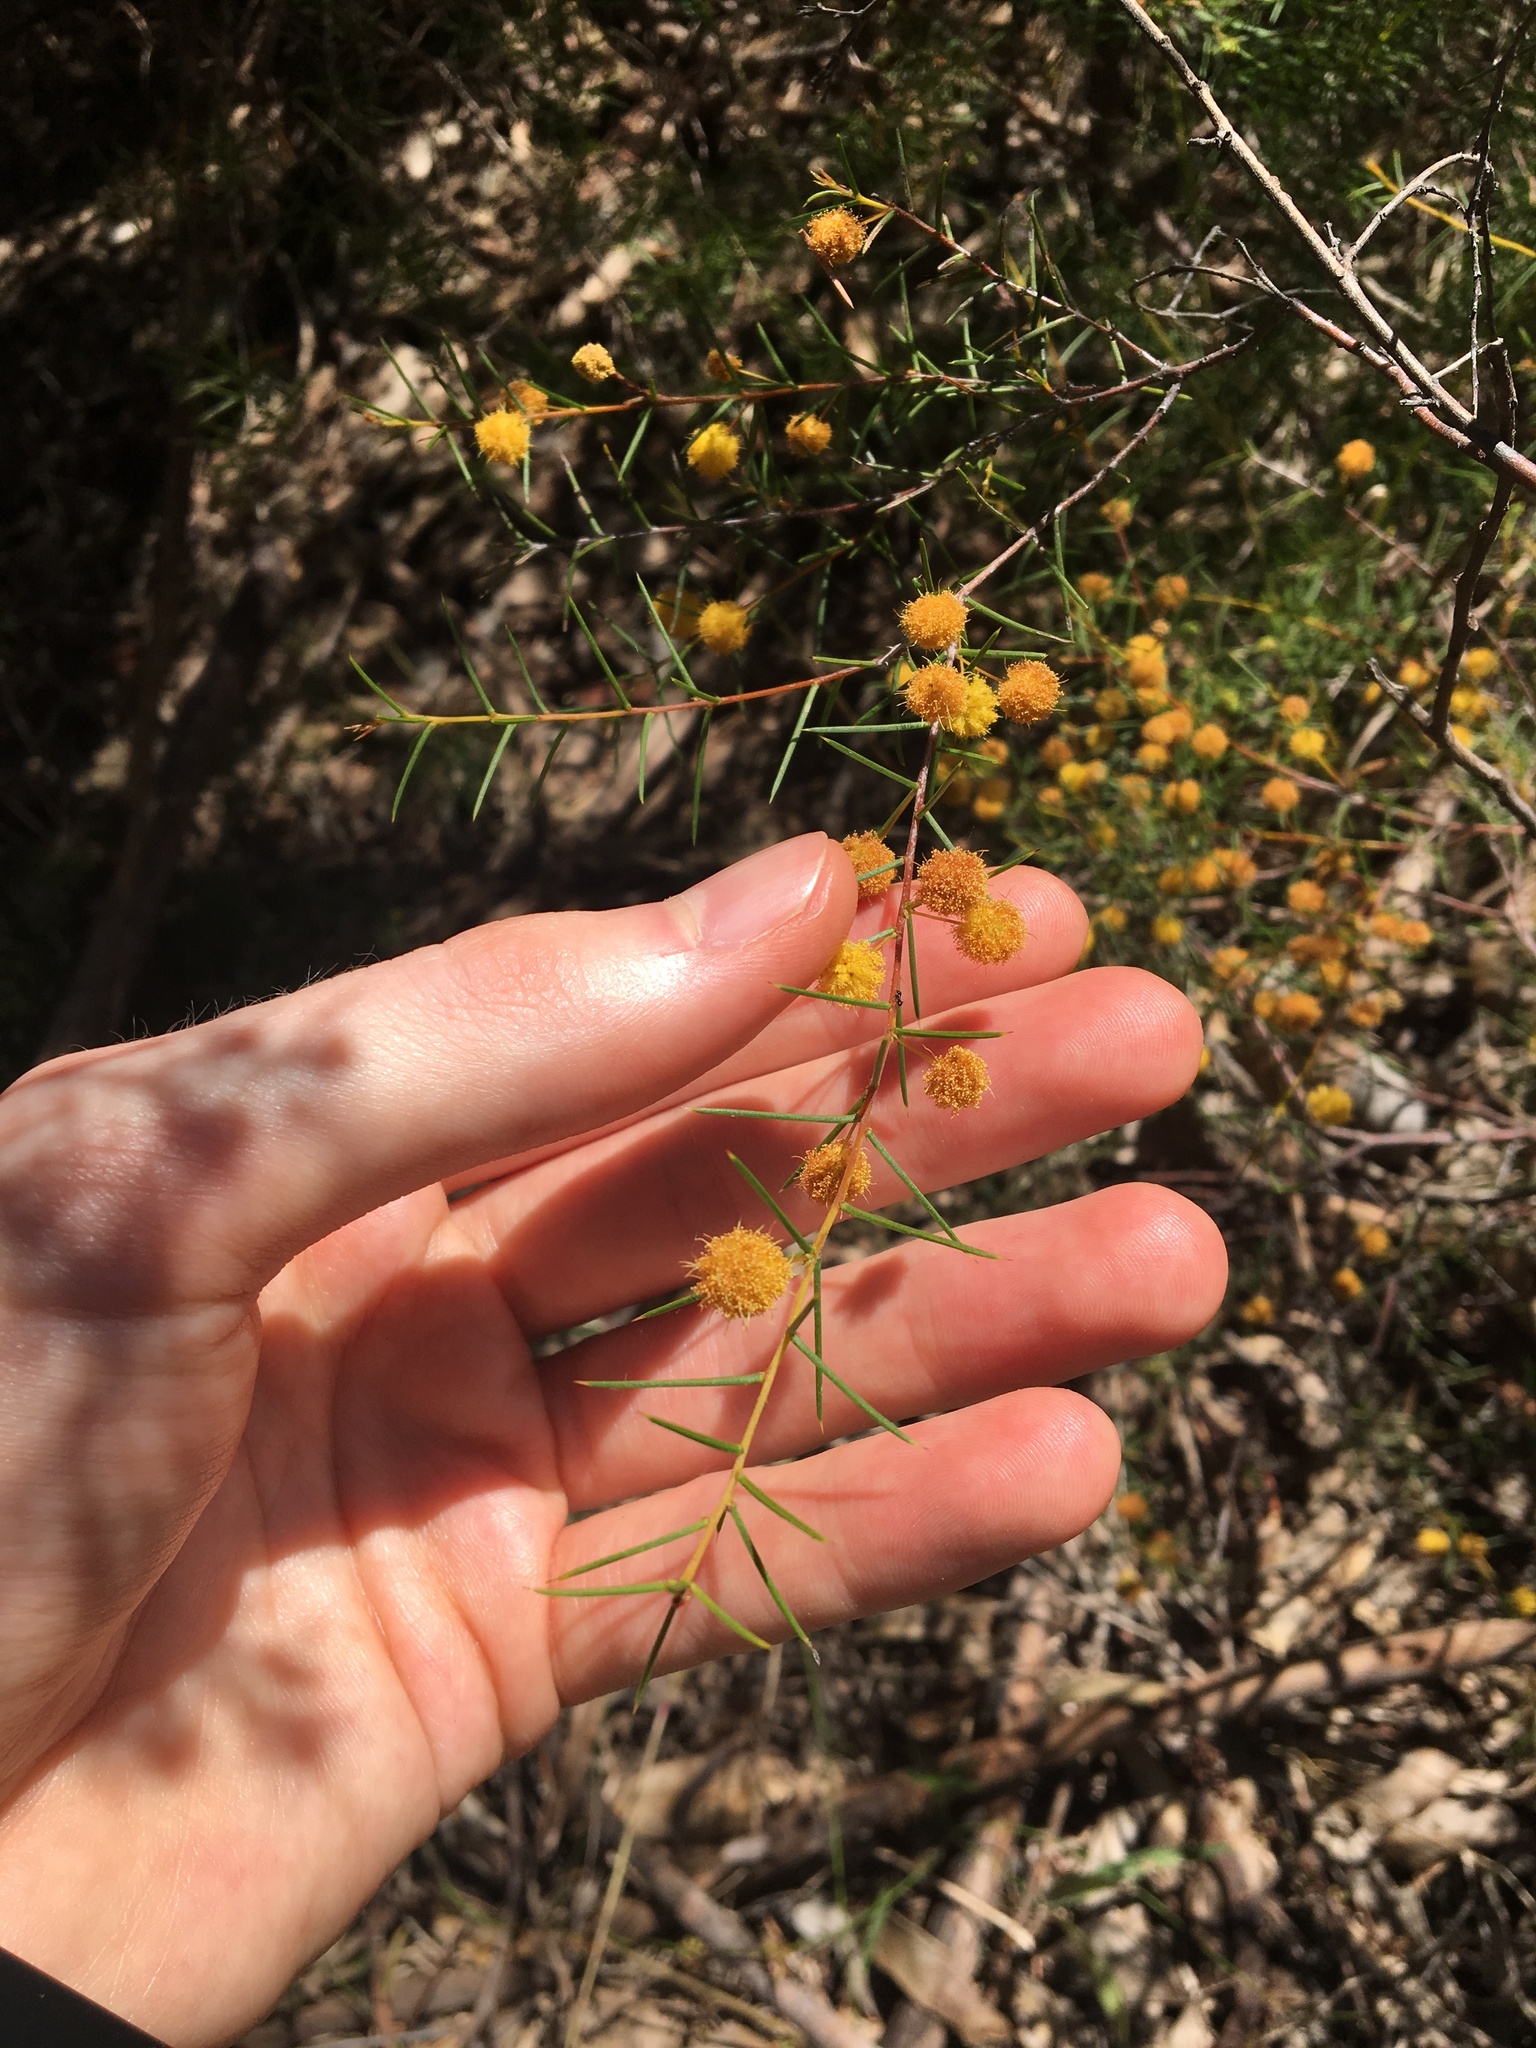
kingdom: Plantae
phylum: Tracheophyta
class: Magnoliopsida
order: Fabales
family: Fabaceae
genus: Acacia
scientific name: Acacia brownii
